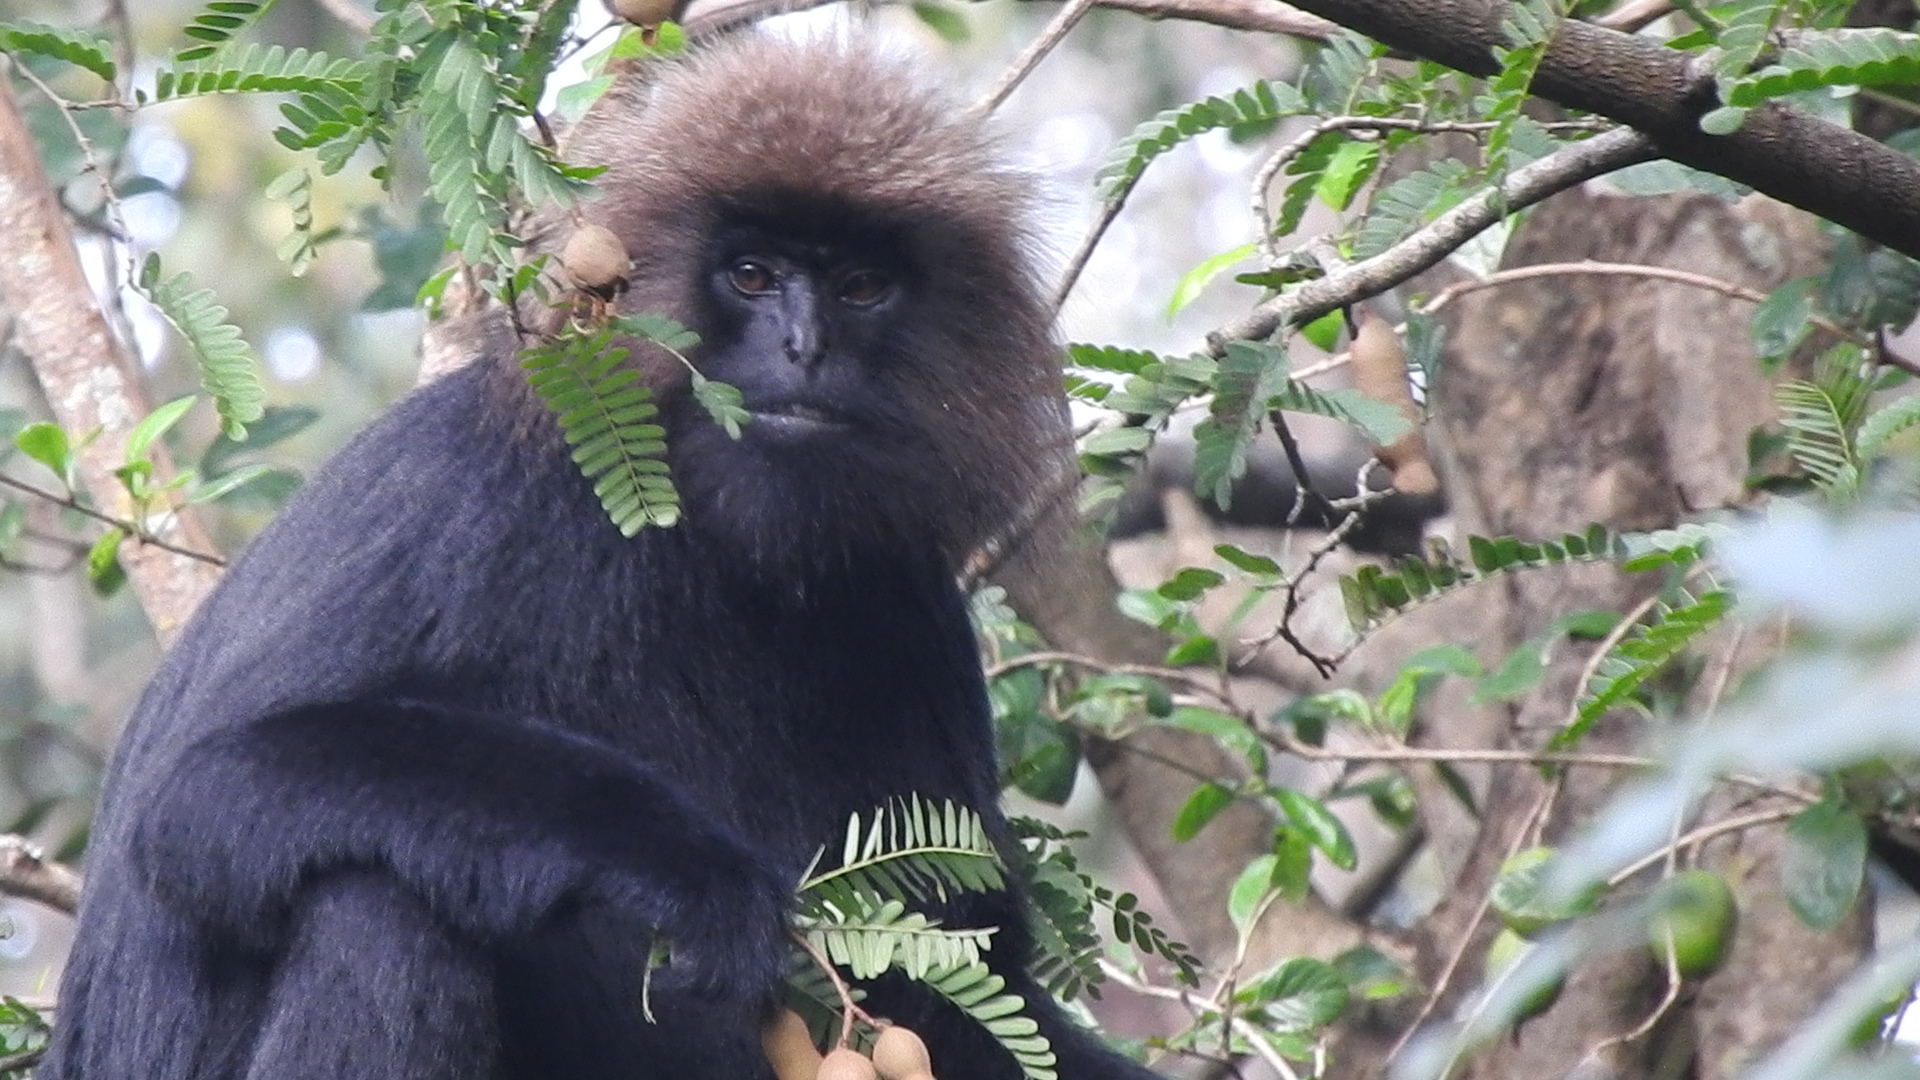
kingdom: Animalia
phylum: Chordata
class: Mammalia
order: Primates
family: Cercopithecidae
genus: Semnopithecus
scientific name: Semnopithecus johnii
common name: Nilgiri langur
